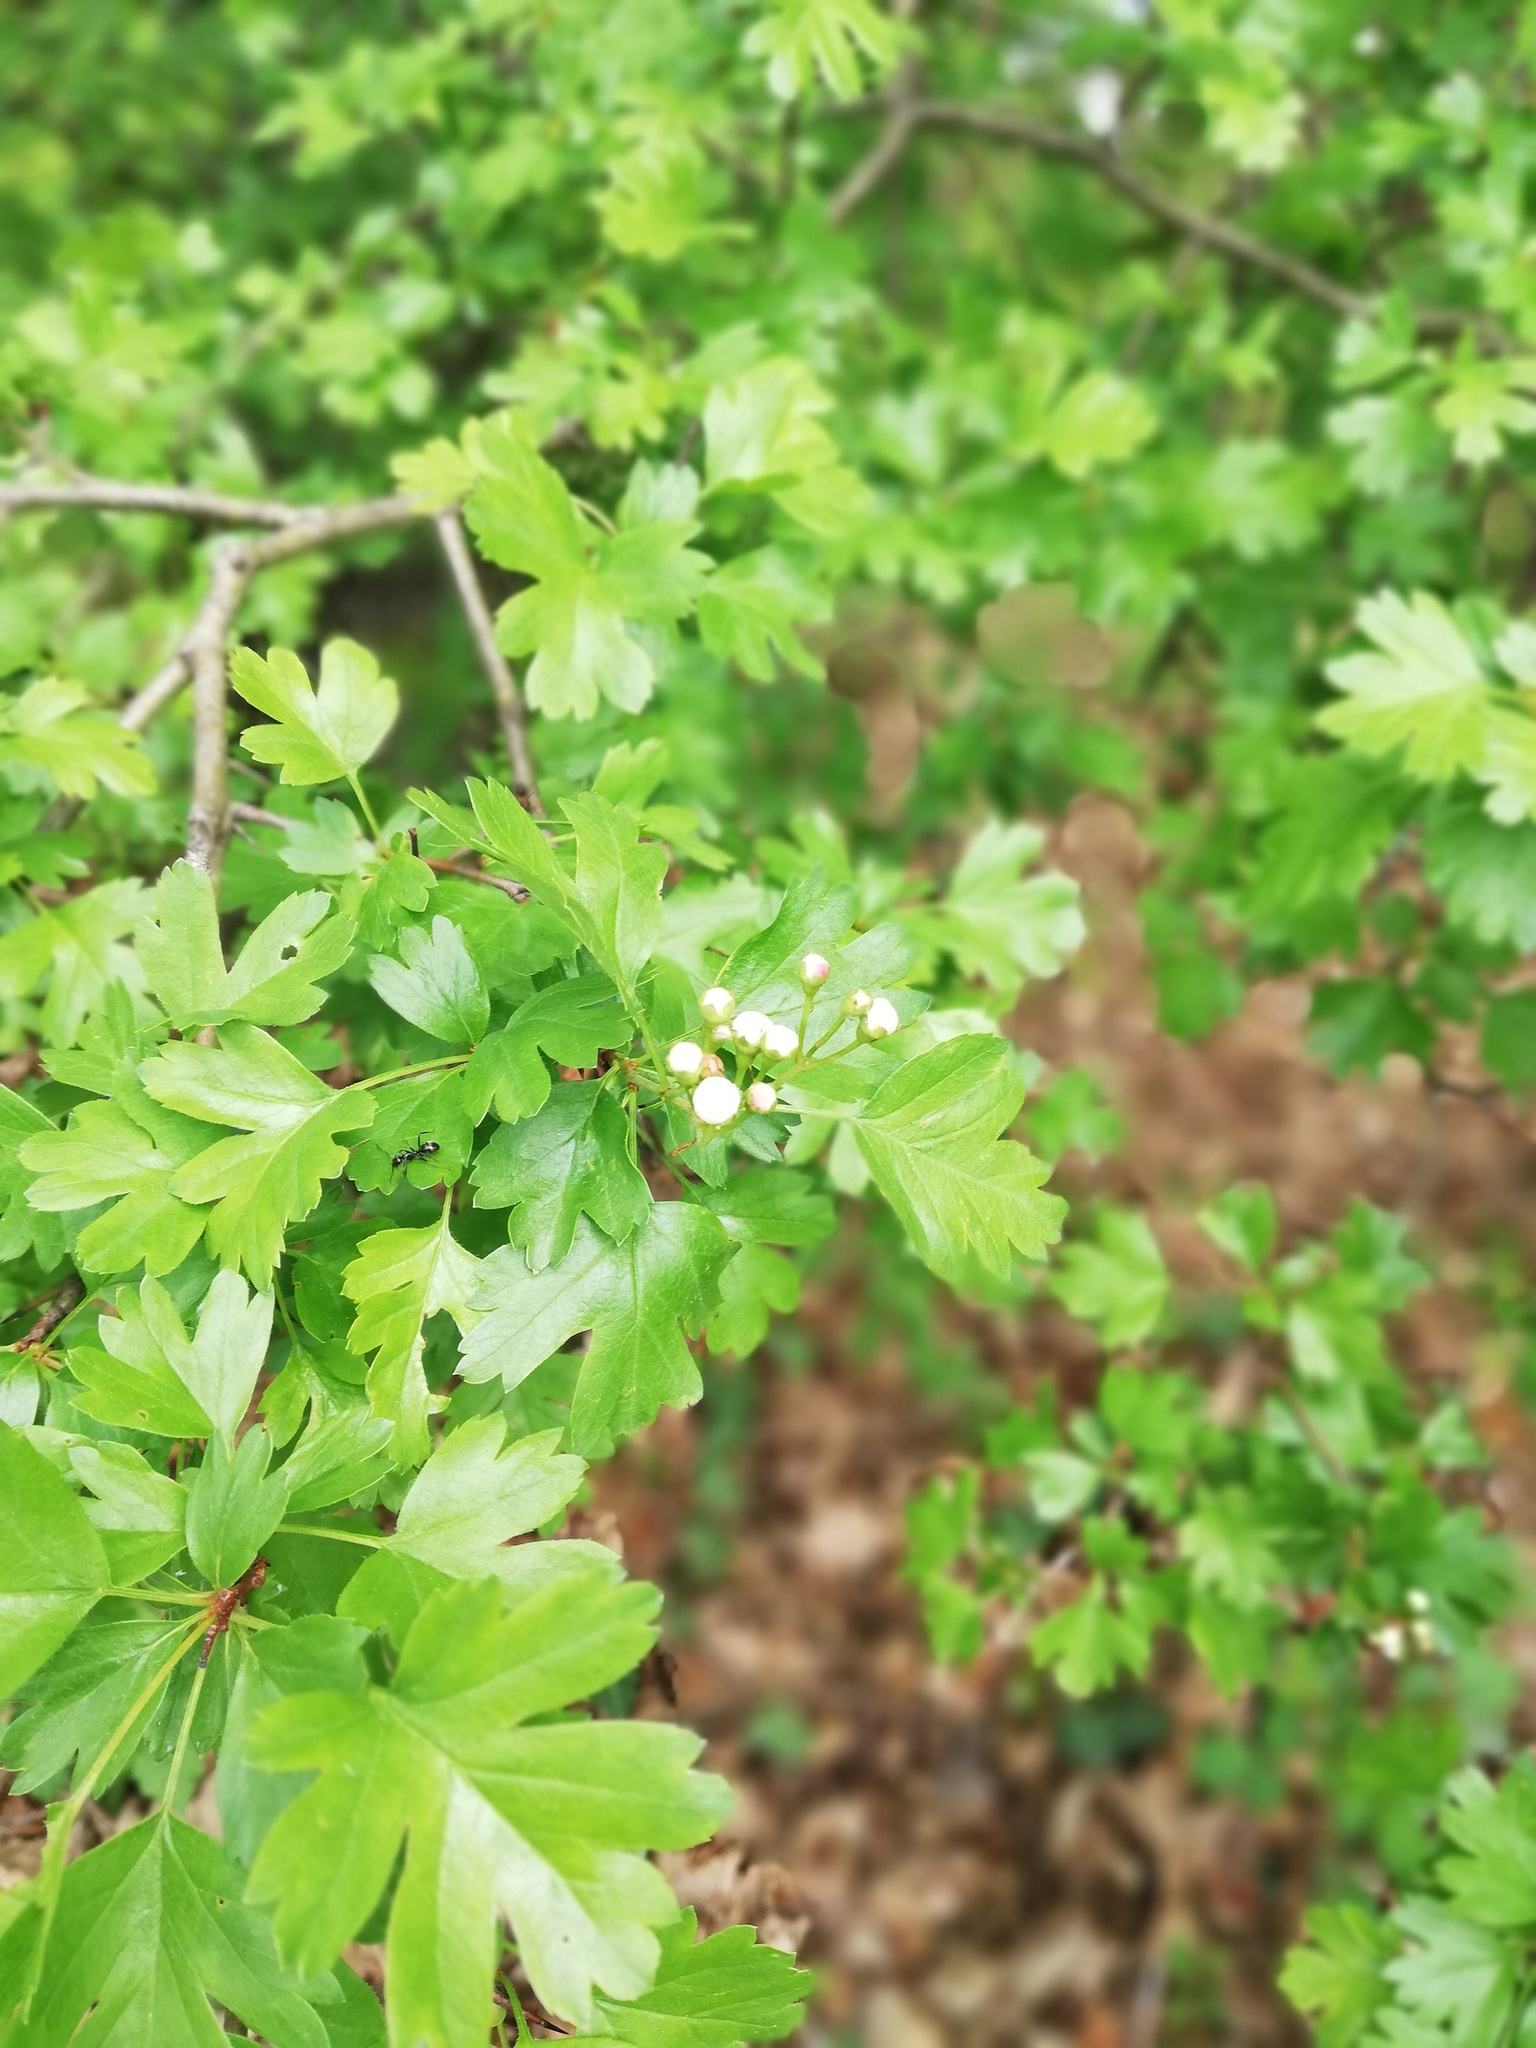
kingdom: Plantae
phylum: Tracheophyta
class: Magnoliopsida
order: Rosales
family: Rosaceae
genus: Crataegus
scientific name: Crataegus monogyna
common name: Hawthorn
